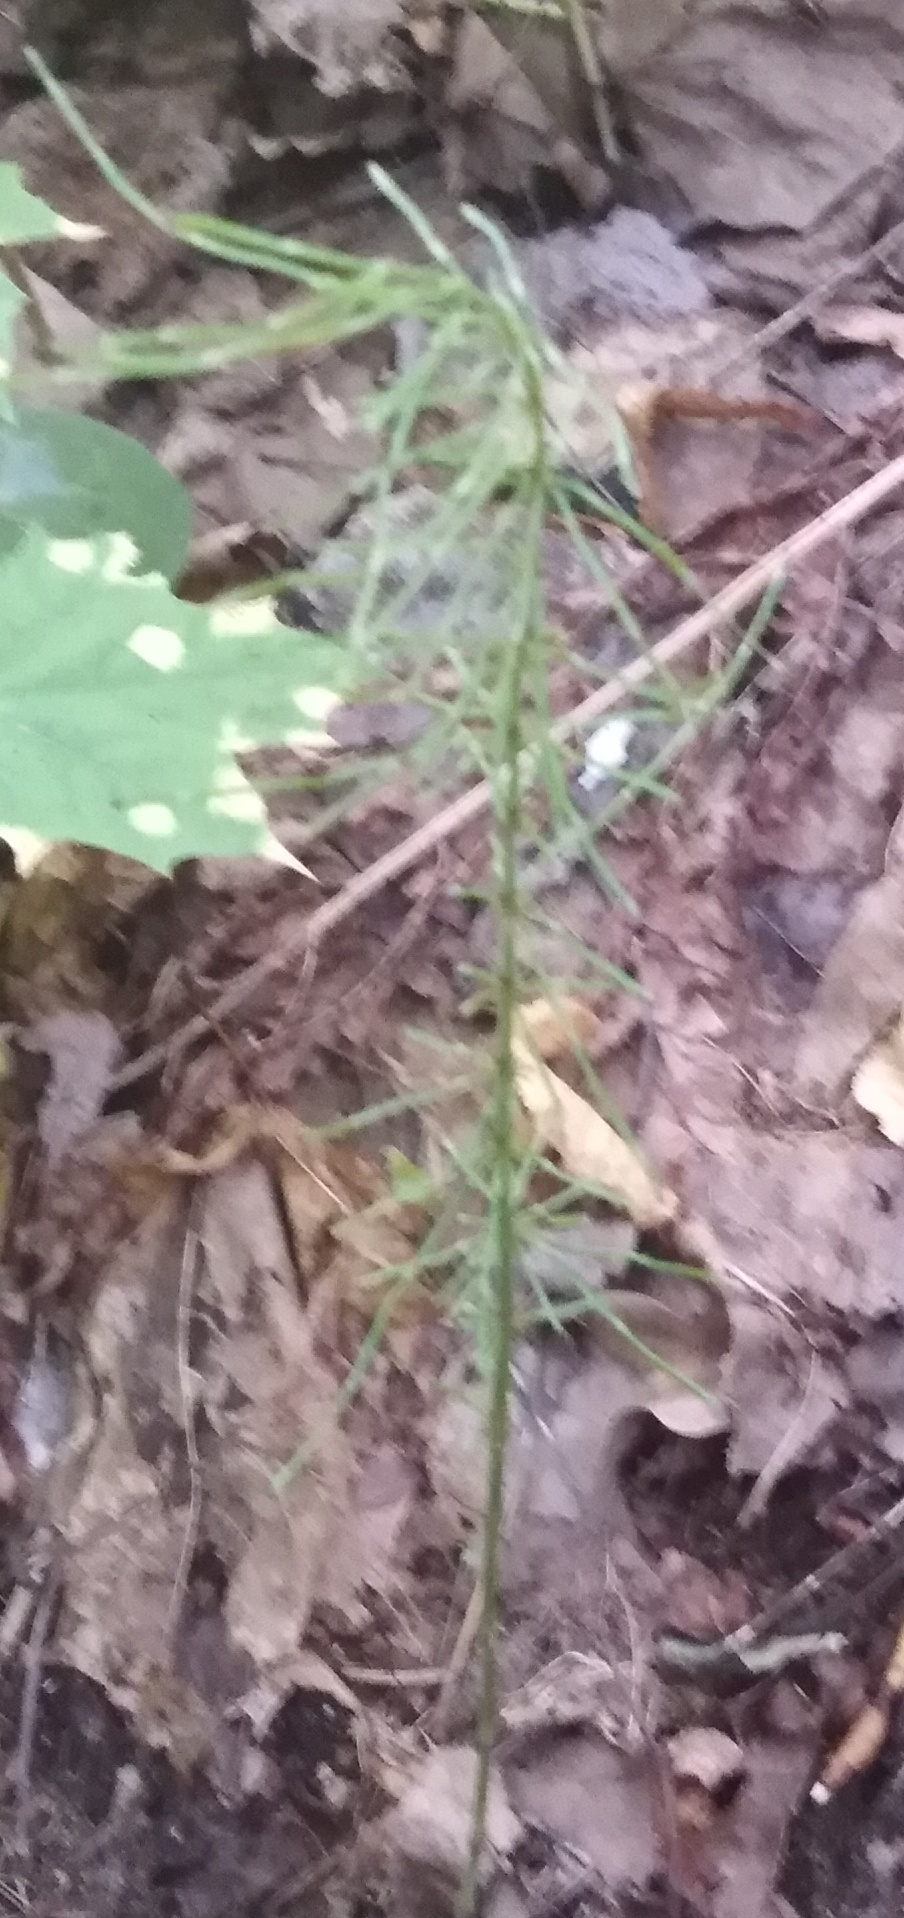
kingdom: Plantae
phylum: Tracheophyta
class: Polypodiopsida
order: Equisetales
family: Equisetaceae
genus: Equisetum
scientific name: Equisetum pratense
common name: Meadow horsetail
